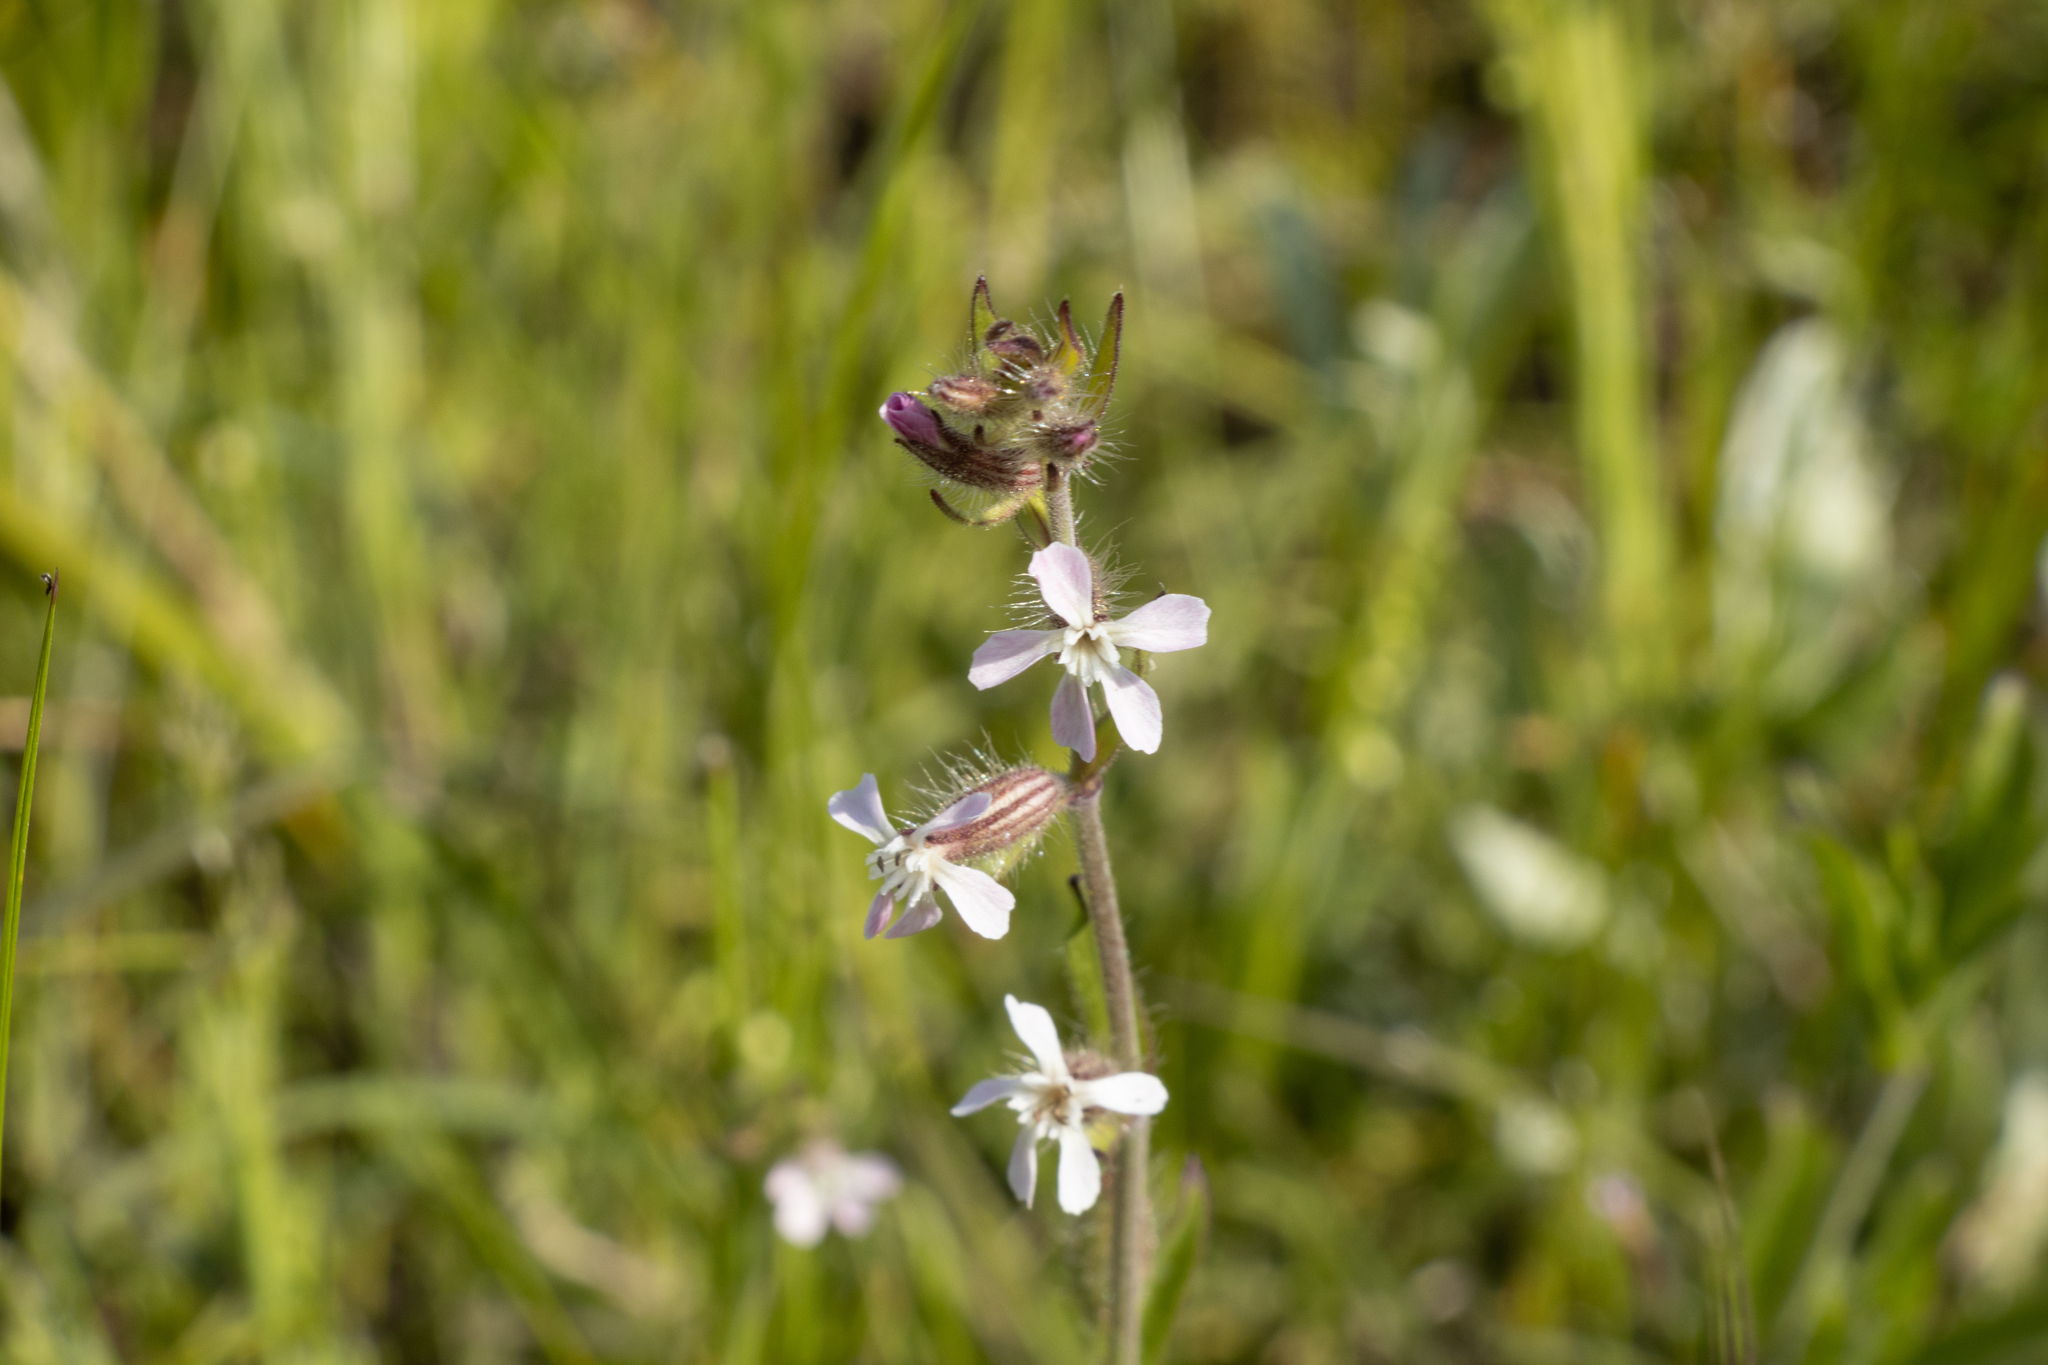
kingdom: Plantae
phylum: Tracheophyta
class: Magnoliopsida
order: Caryophyllales
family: Caryophyllaceae
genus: Silene
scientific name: Silene gallica
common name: Small-flowered catchfly
